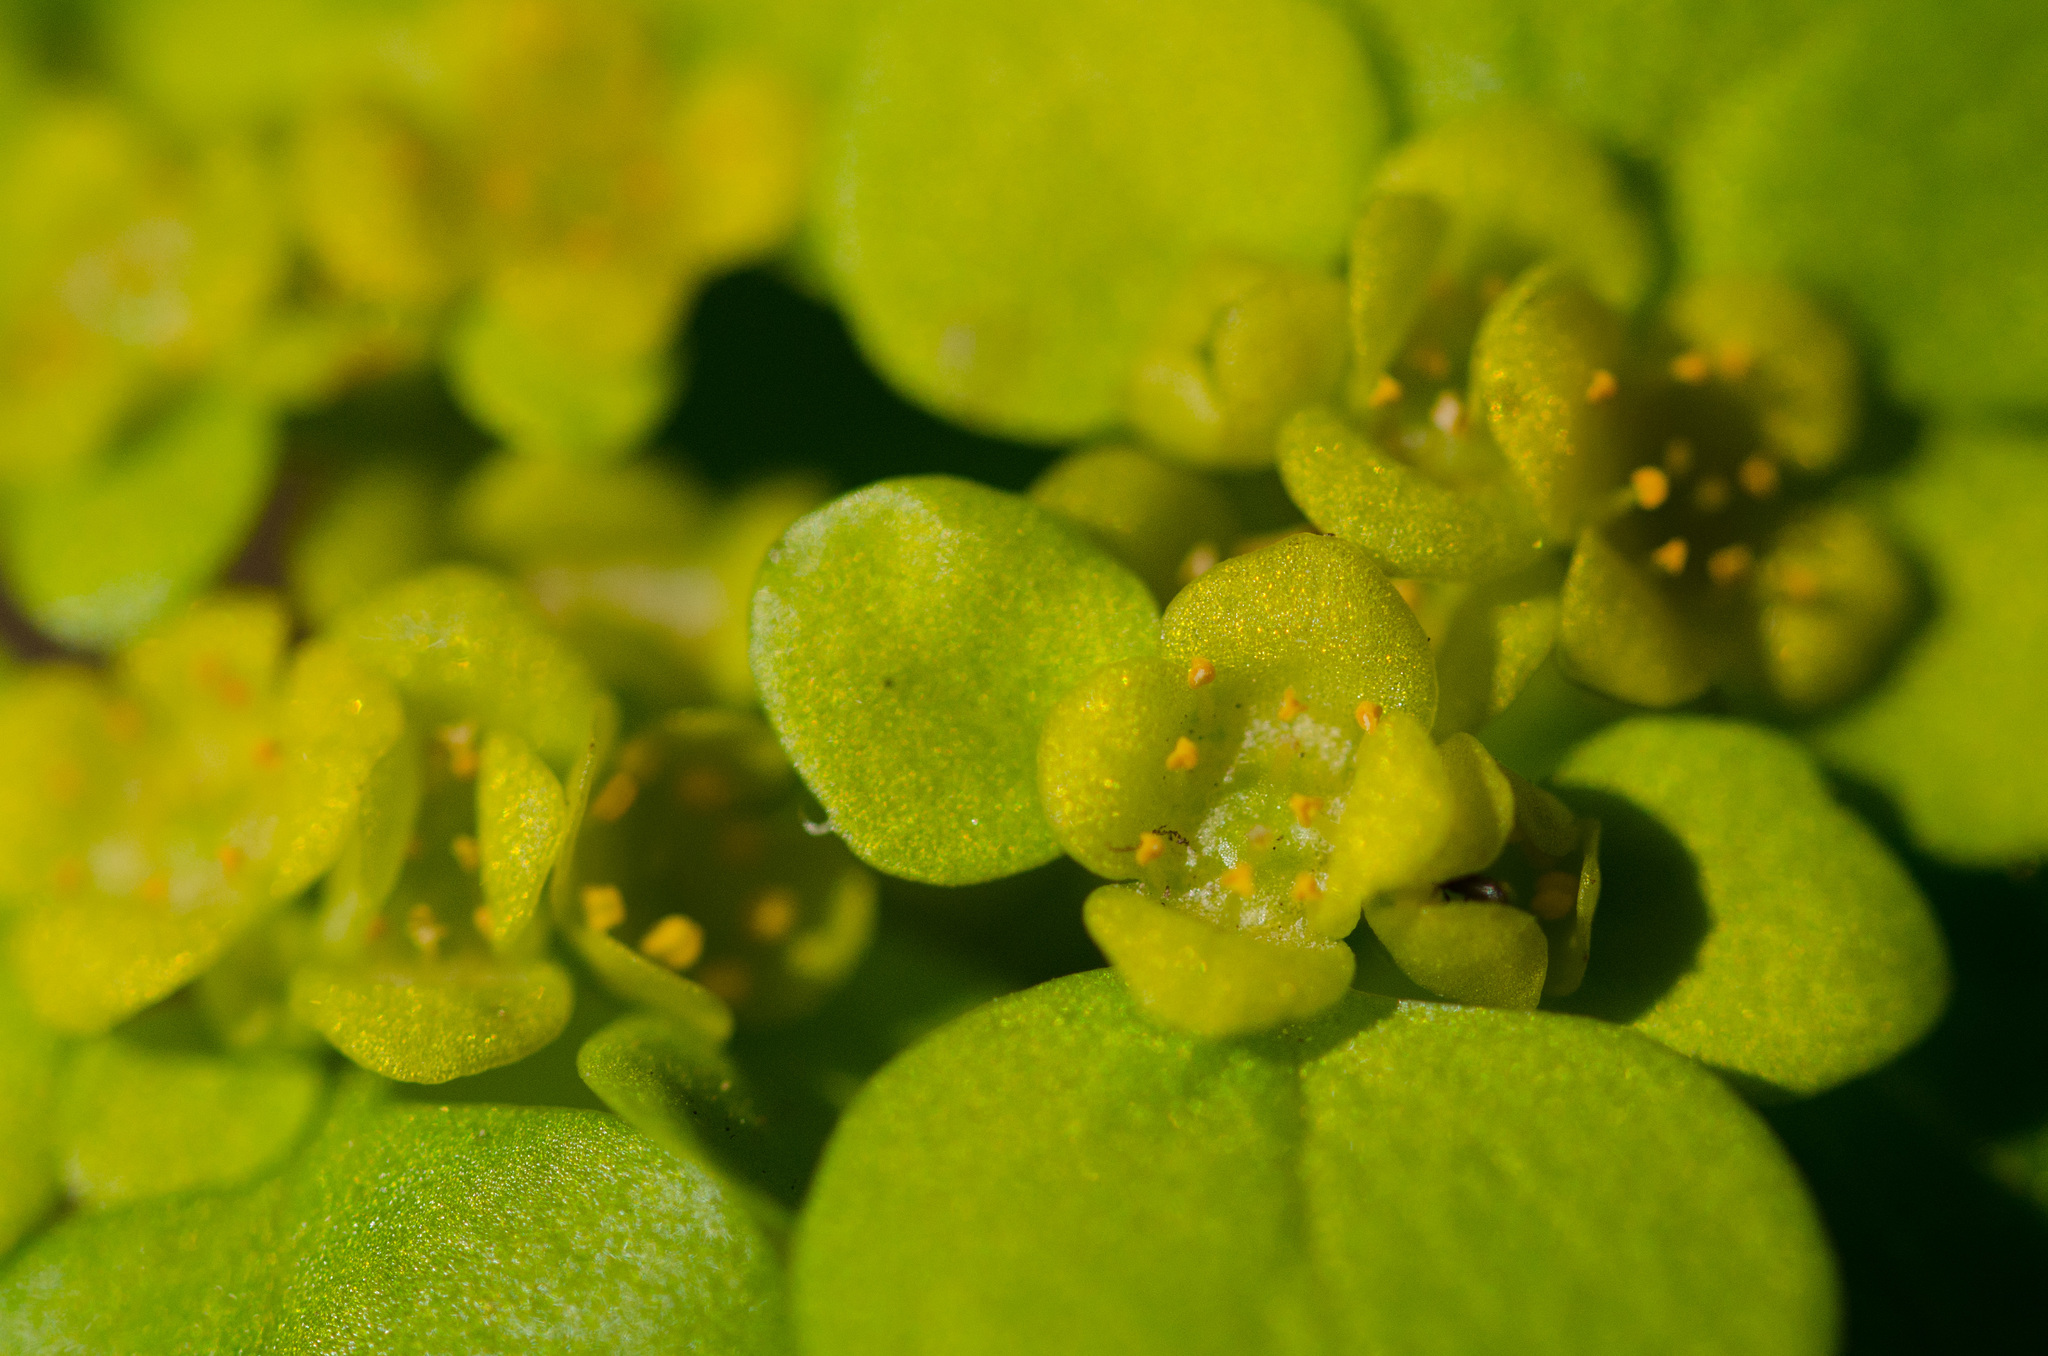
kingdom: Plantae
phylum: Tracheophyta
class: Magnoliopsida
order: Saxifragales
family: Saxifragaceae
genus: Chrysosplenium
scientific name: Chrysosplenium alternifolium
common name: Alternate-leaved golden-saxifrage
